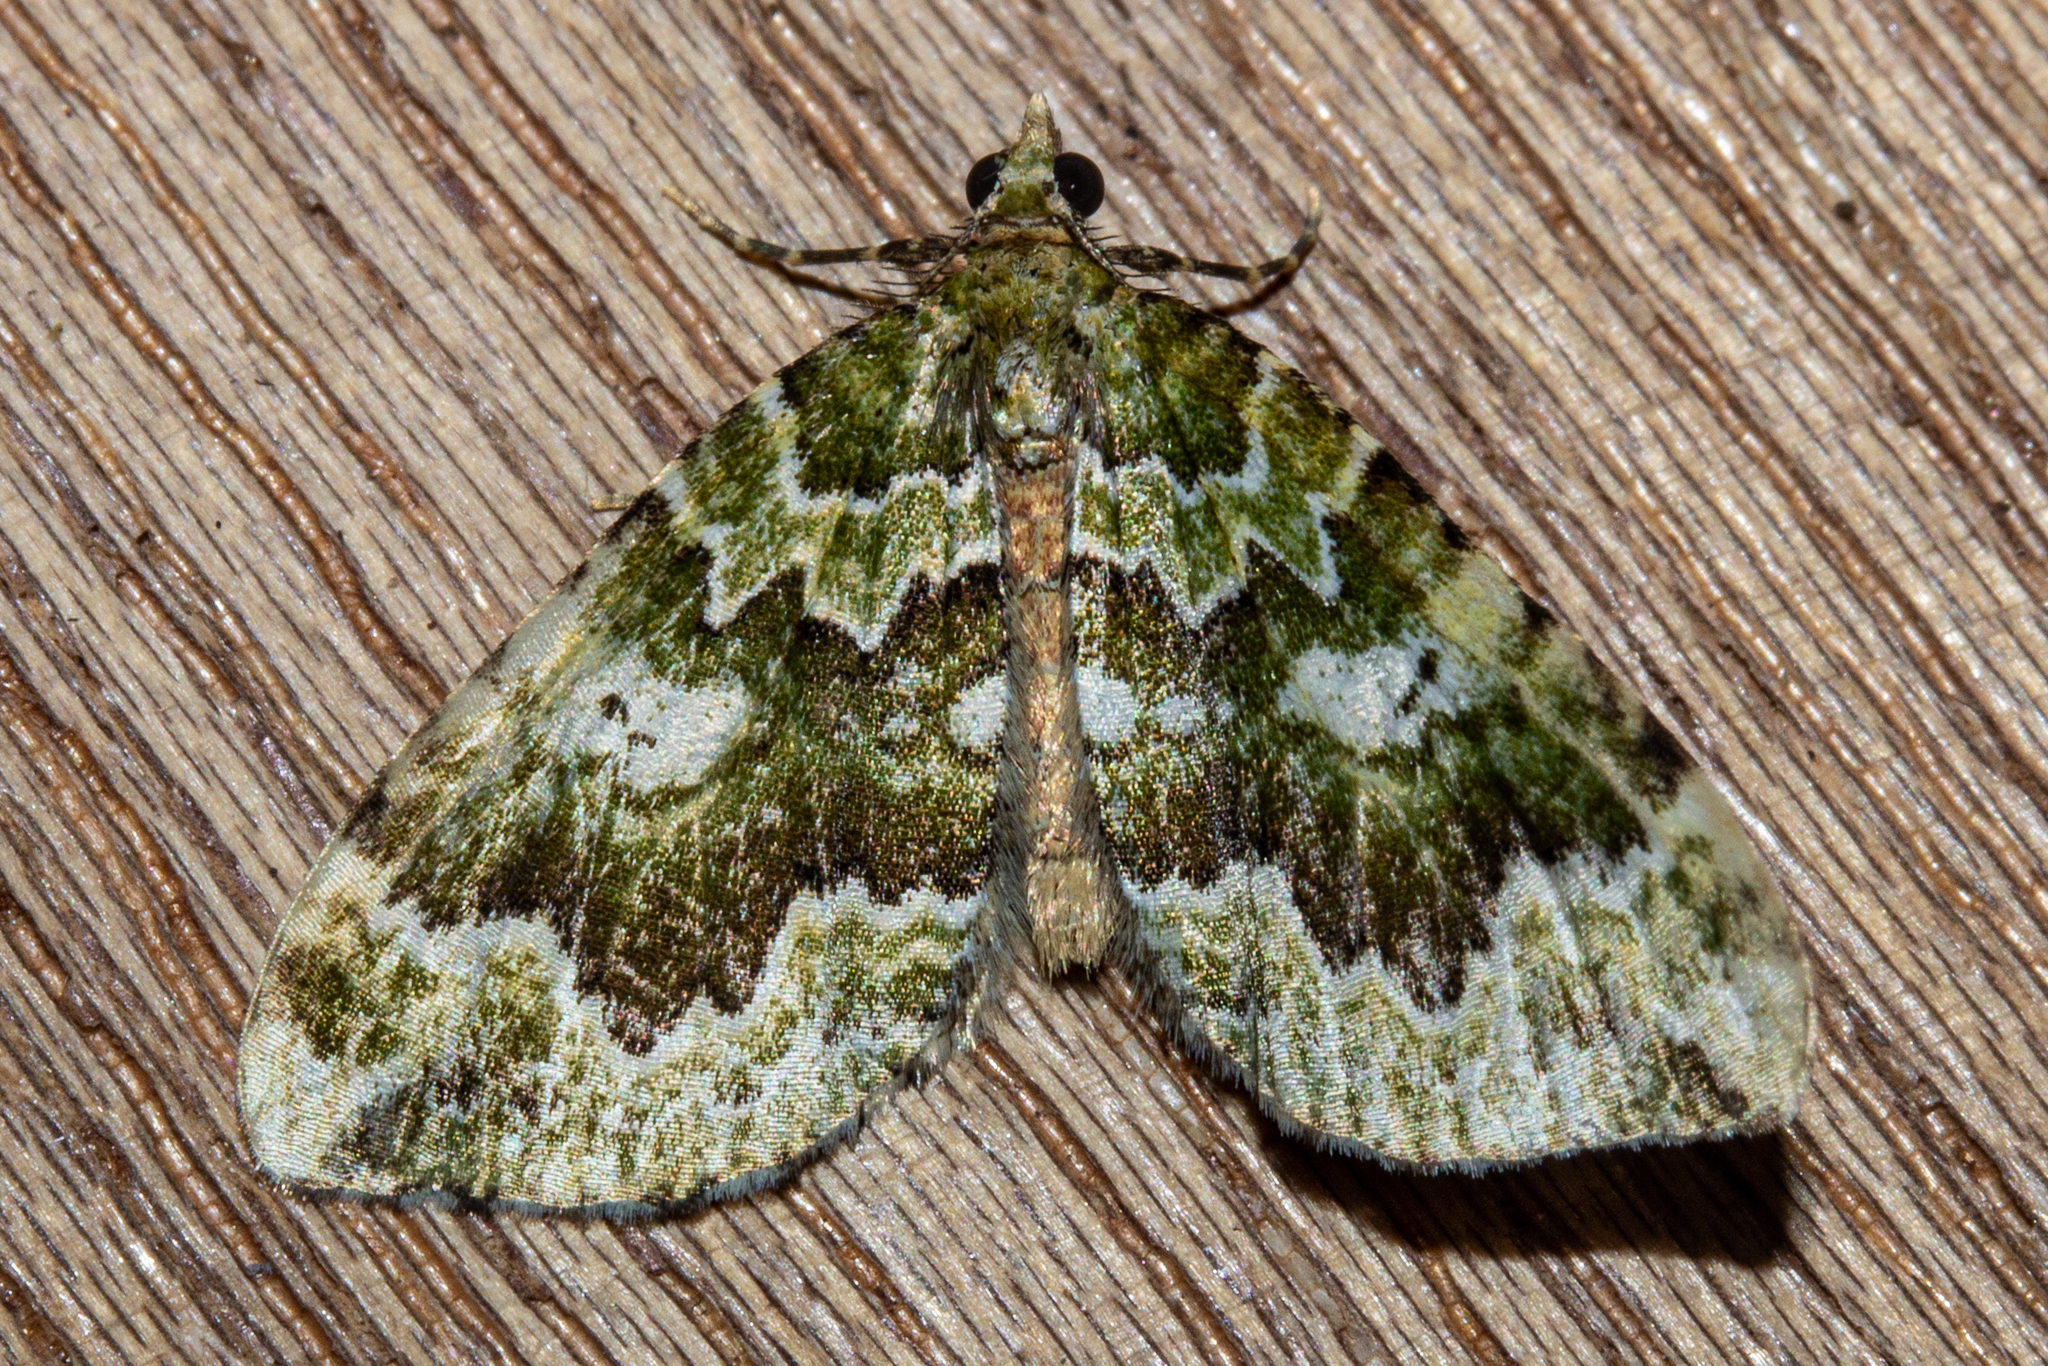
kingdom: Animalia
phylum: Arthropoda
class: Insecta
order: Lepidoptera
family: Geometridae
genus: Asaphodes
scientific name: Asaphodes beata
